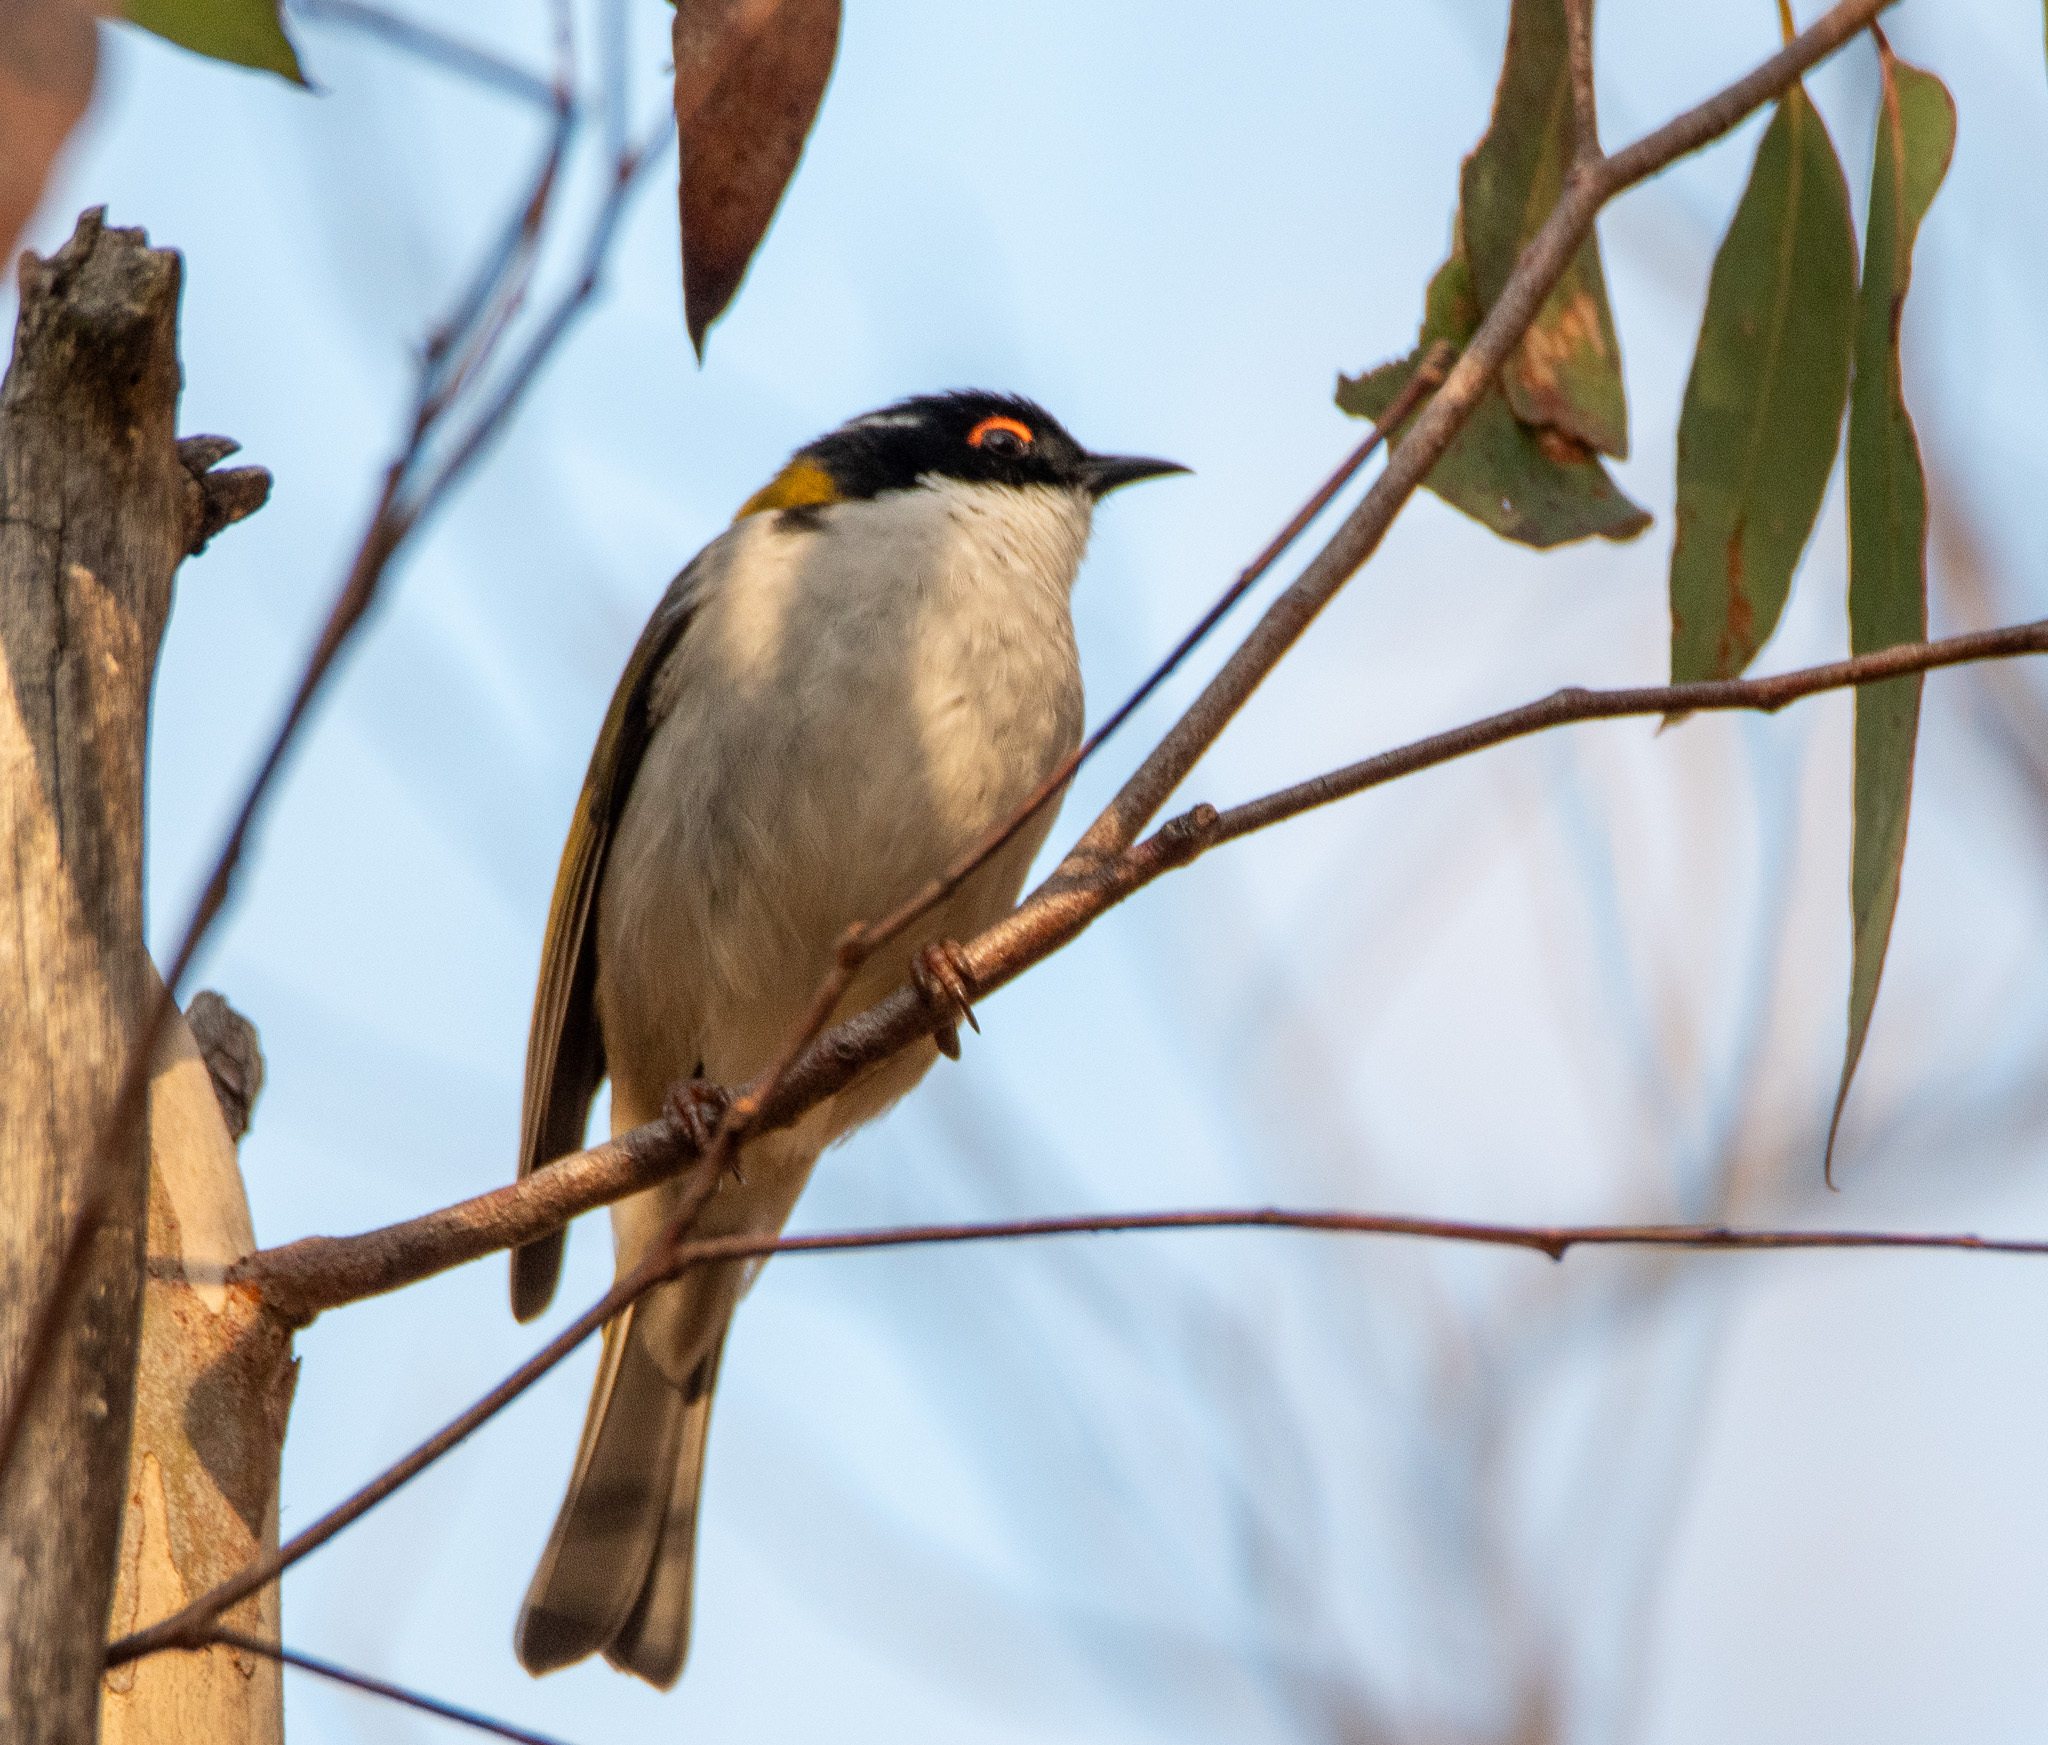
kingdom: Animalia
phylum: Chordata
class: Aves
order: Passeriformes
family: Meliphagidae
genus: Melithreptus
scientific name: Melithreptus lunatus
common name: White-naped honeyeater
